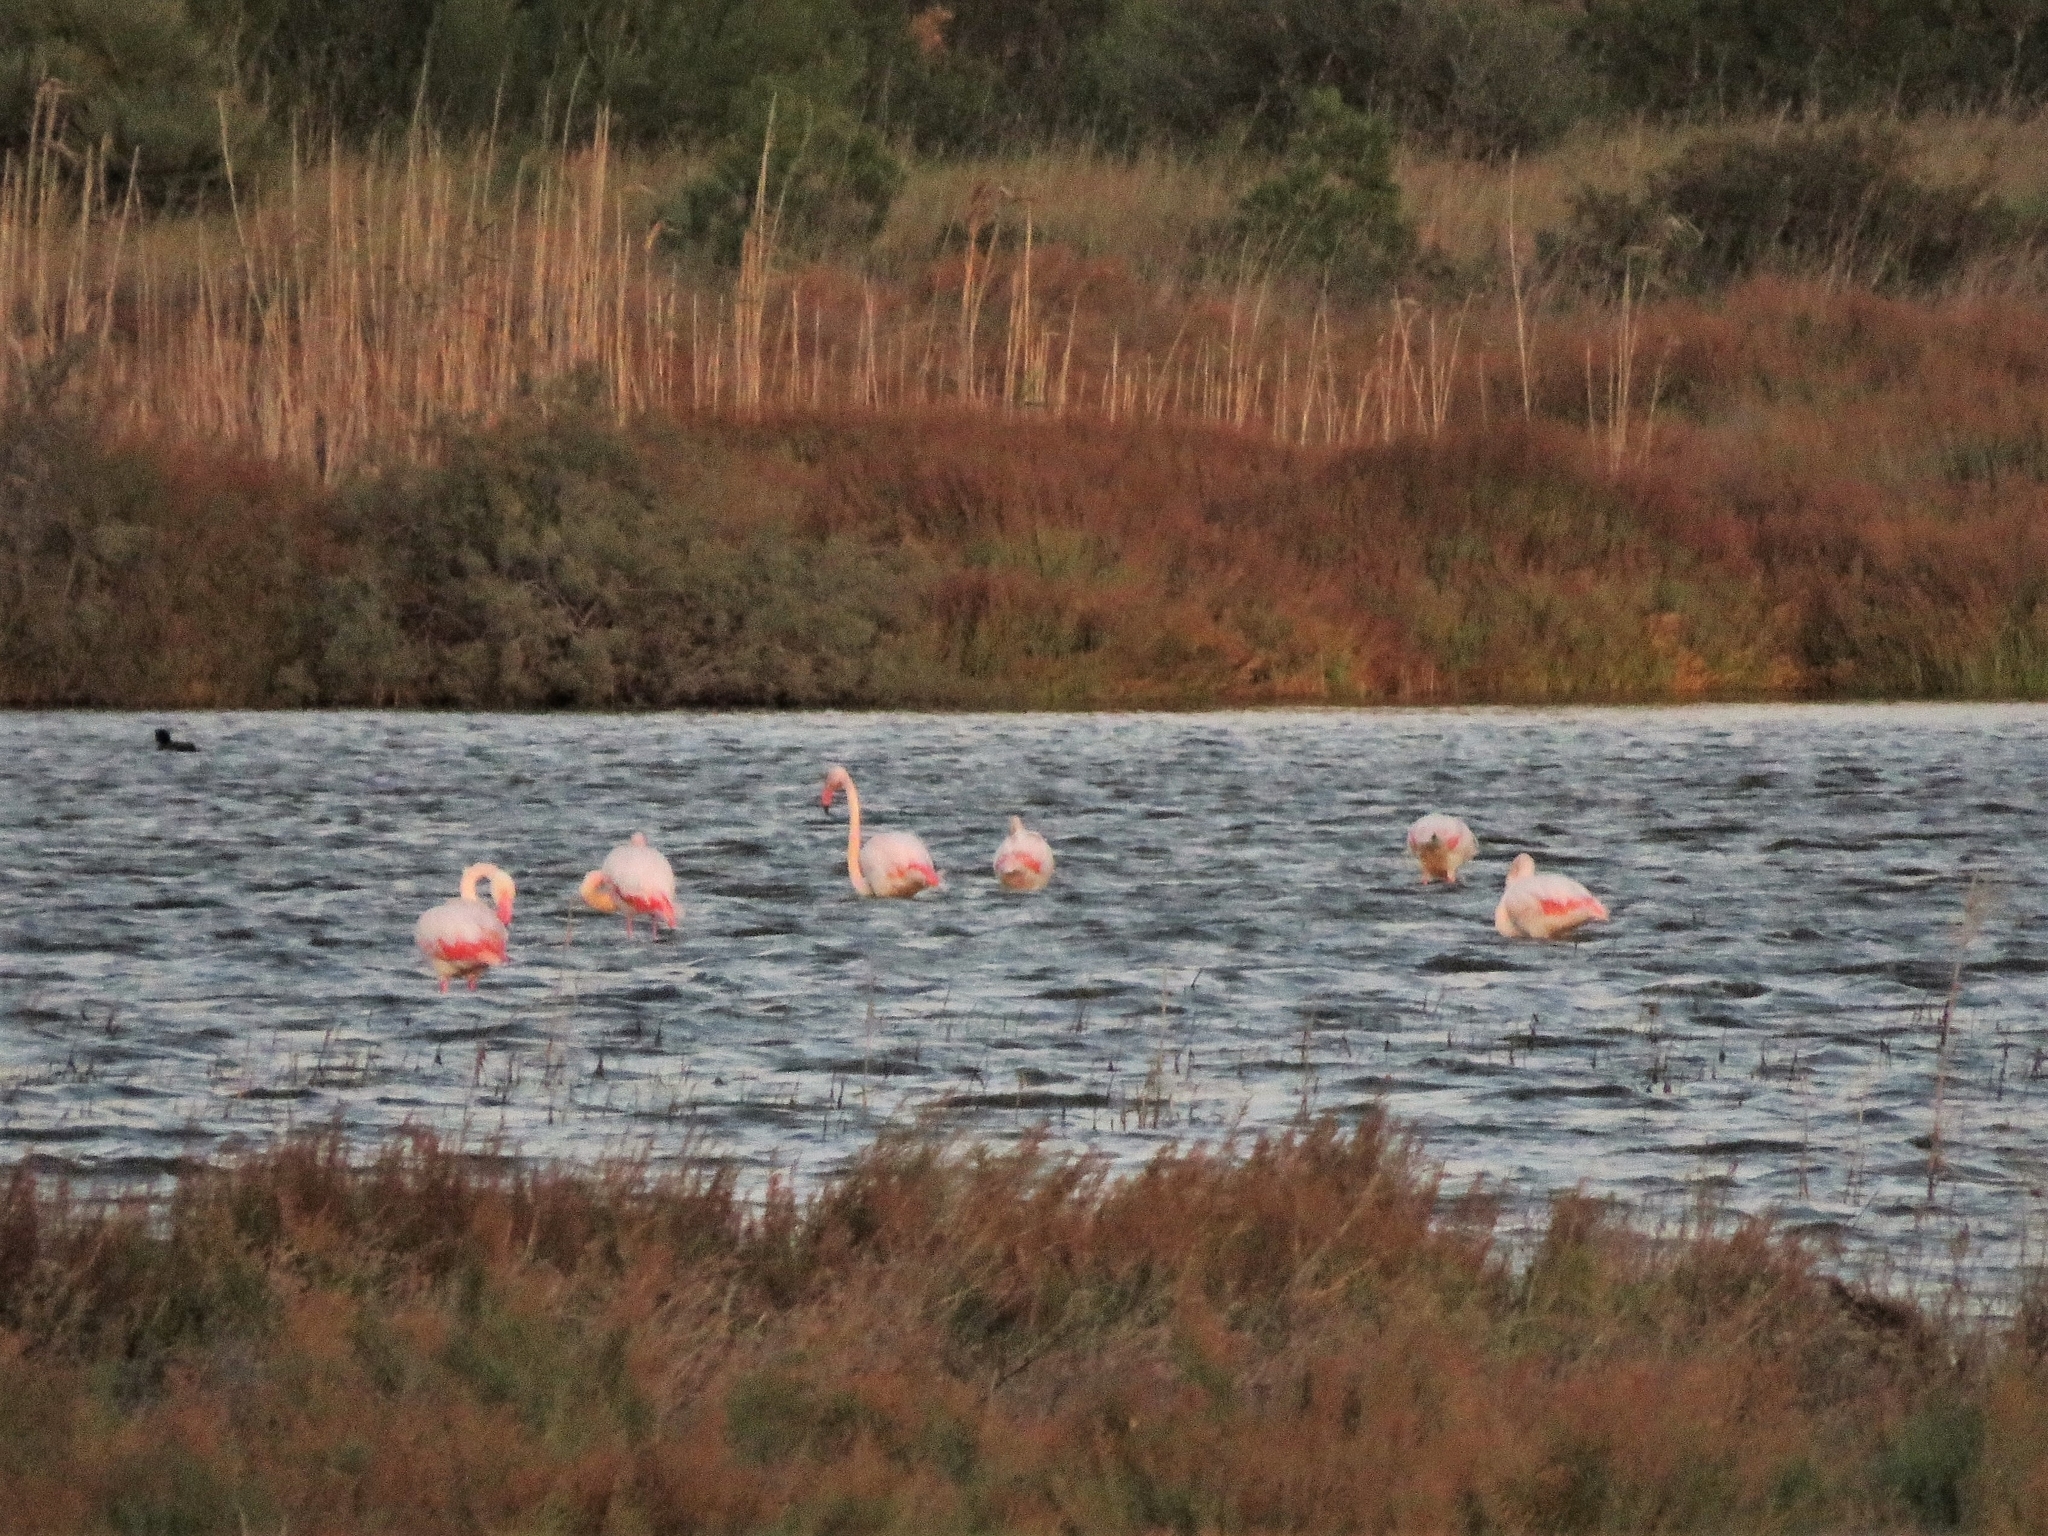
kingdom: Animalia
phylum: Chordata
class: Aves
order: Phoenicopteriformes
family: Phoenicopteridae
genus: Phoenicopterus
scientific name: Phoenicopterus roseus
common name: Greater flamingo
